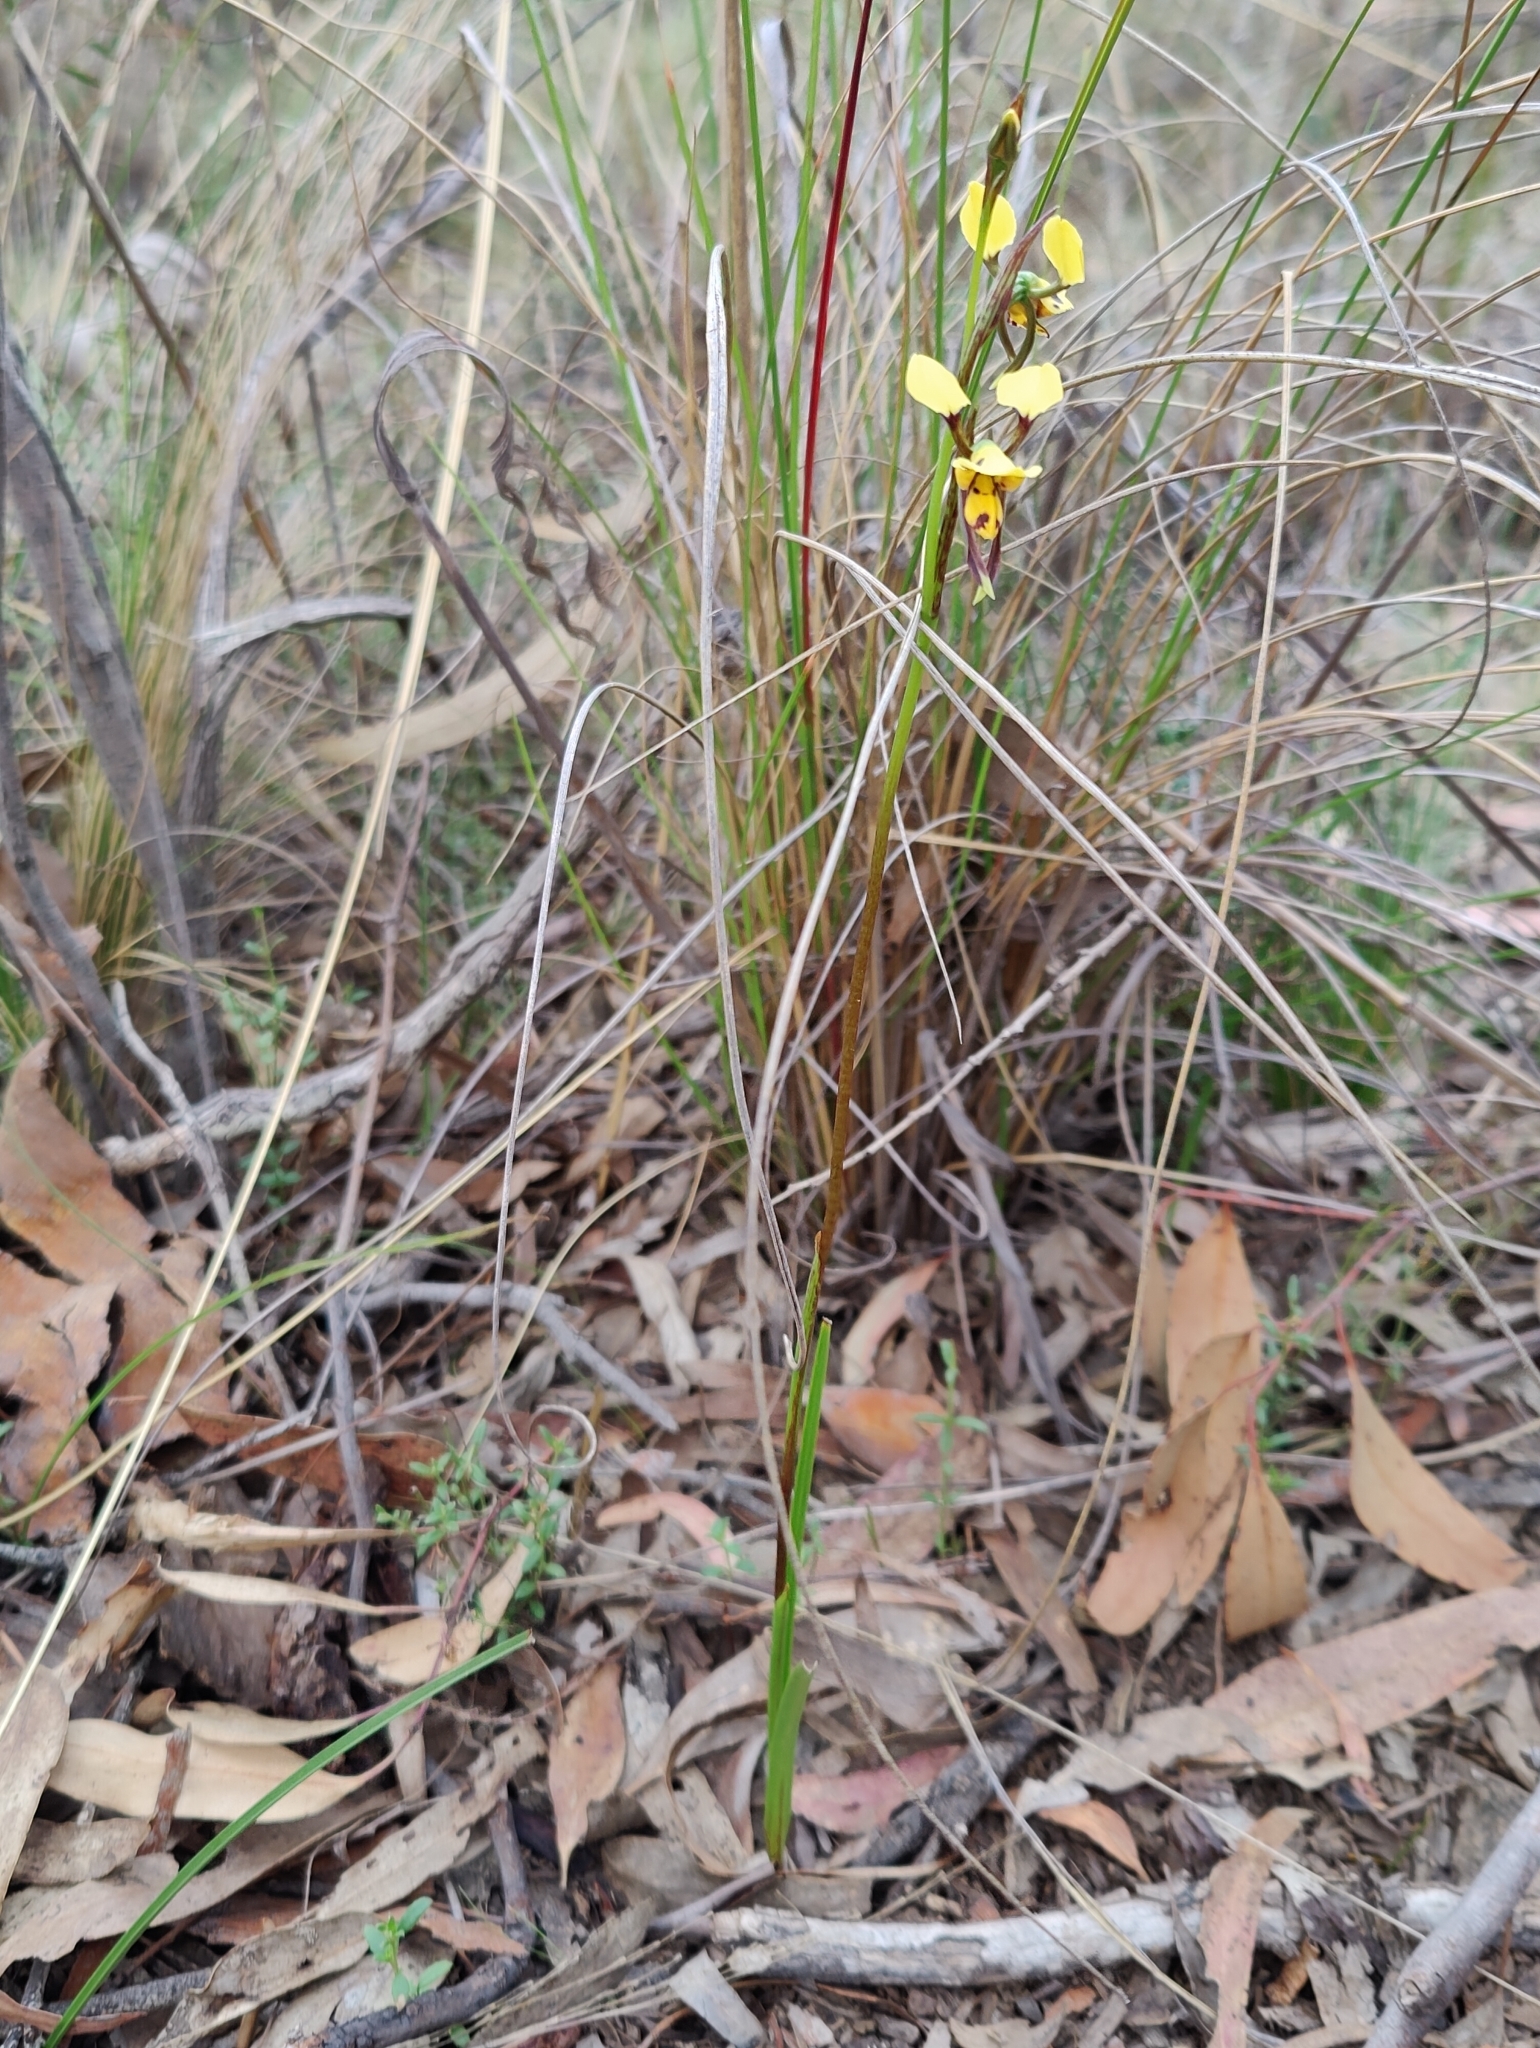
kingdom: Plantae
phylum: Tracheophyta
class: Liliopsida
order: Asparagales
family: Orchidaceae
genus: Diuris
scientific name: Diuris sulphurea
